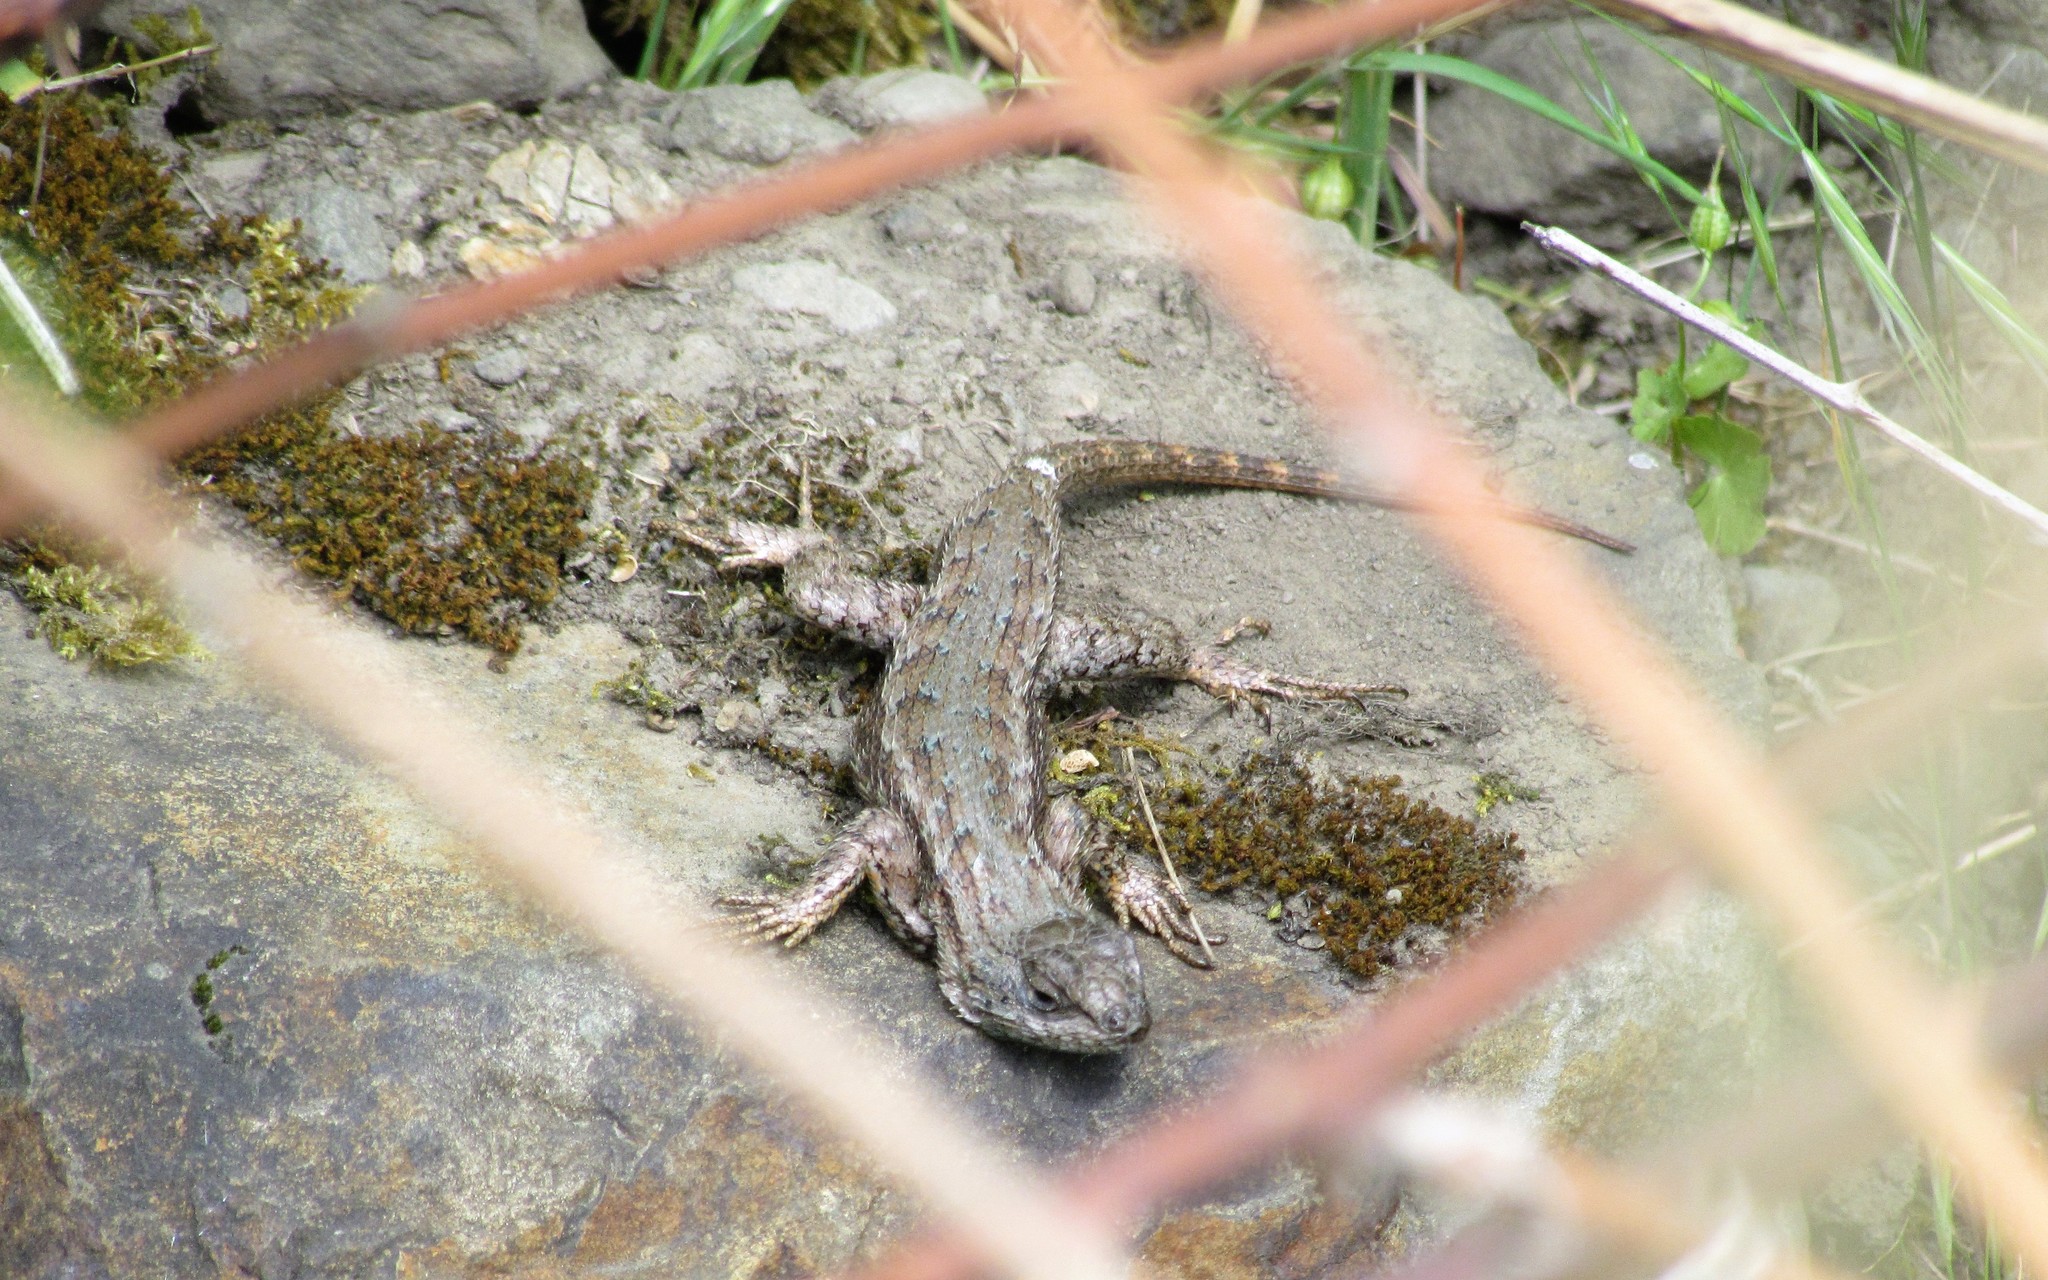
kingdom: Animalia
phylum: Chordata
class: Squamata
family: Phrynosomatidae
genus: Sceloporus
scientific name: Sceloporus occidentalis
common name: Western fence lizard
